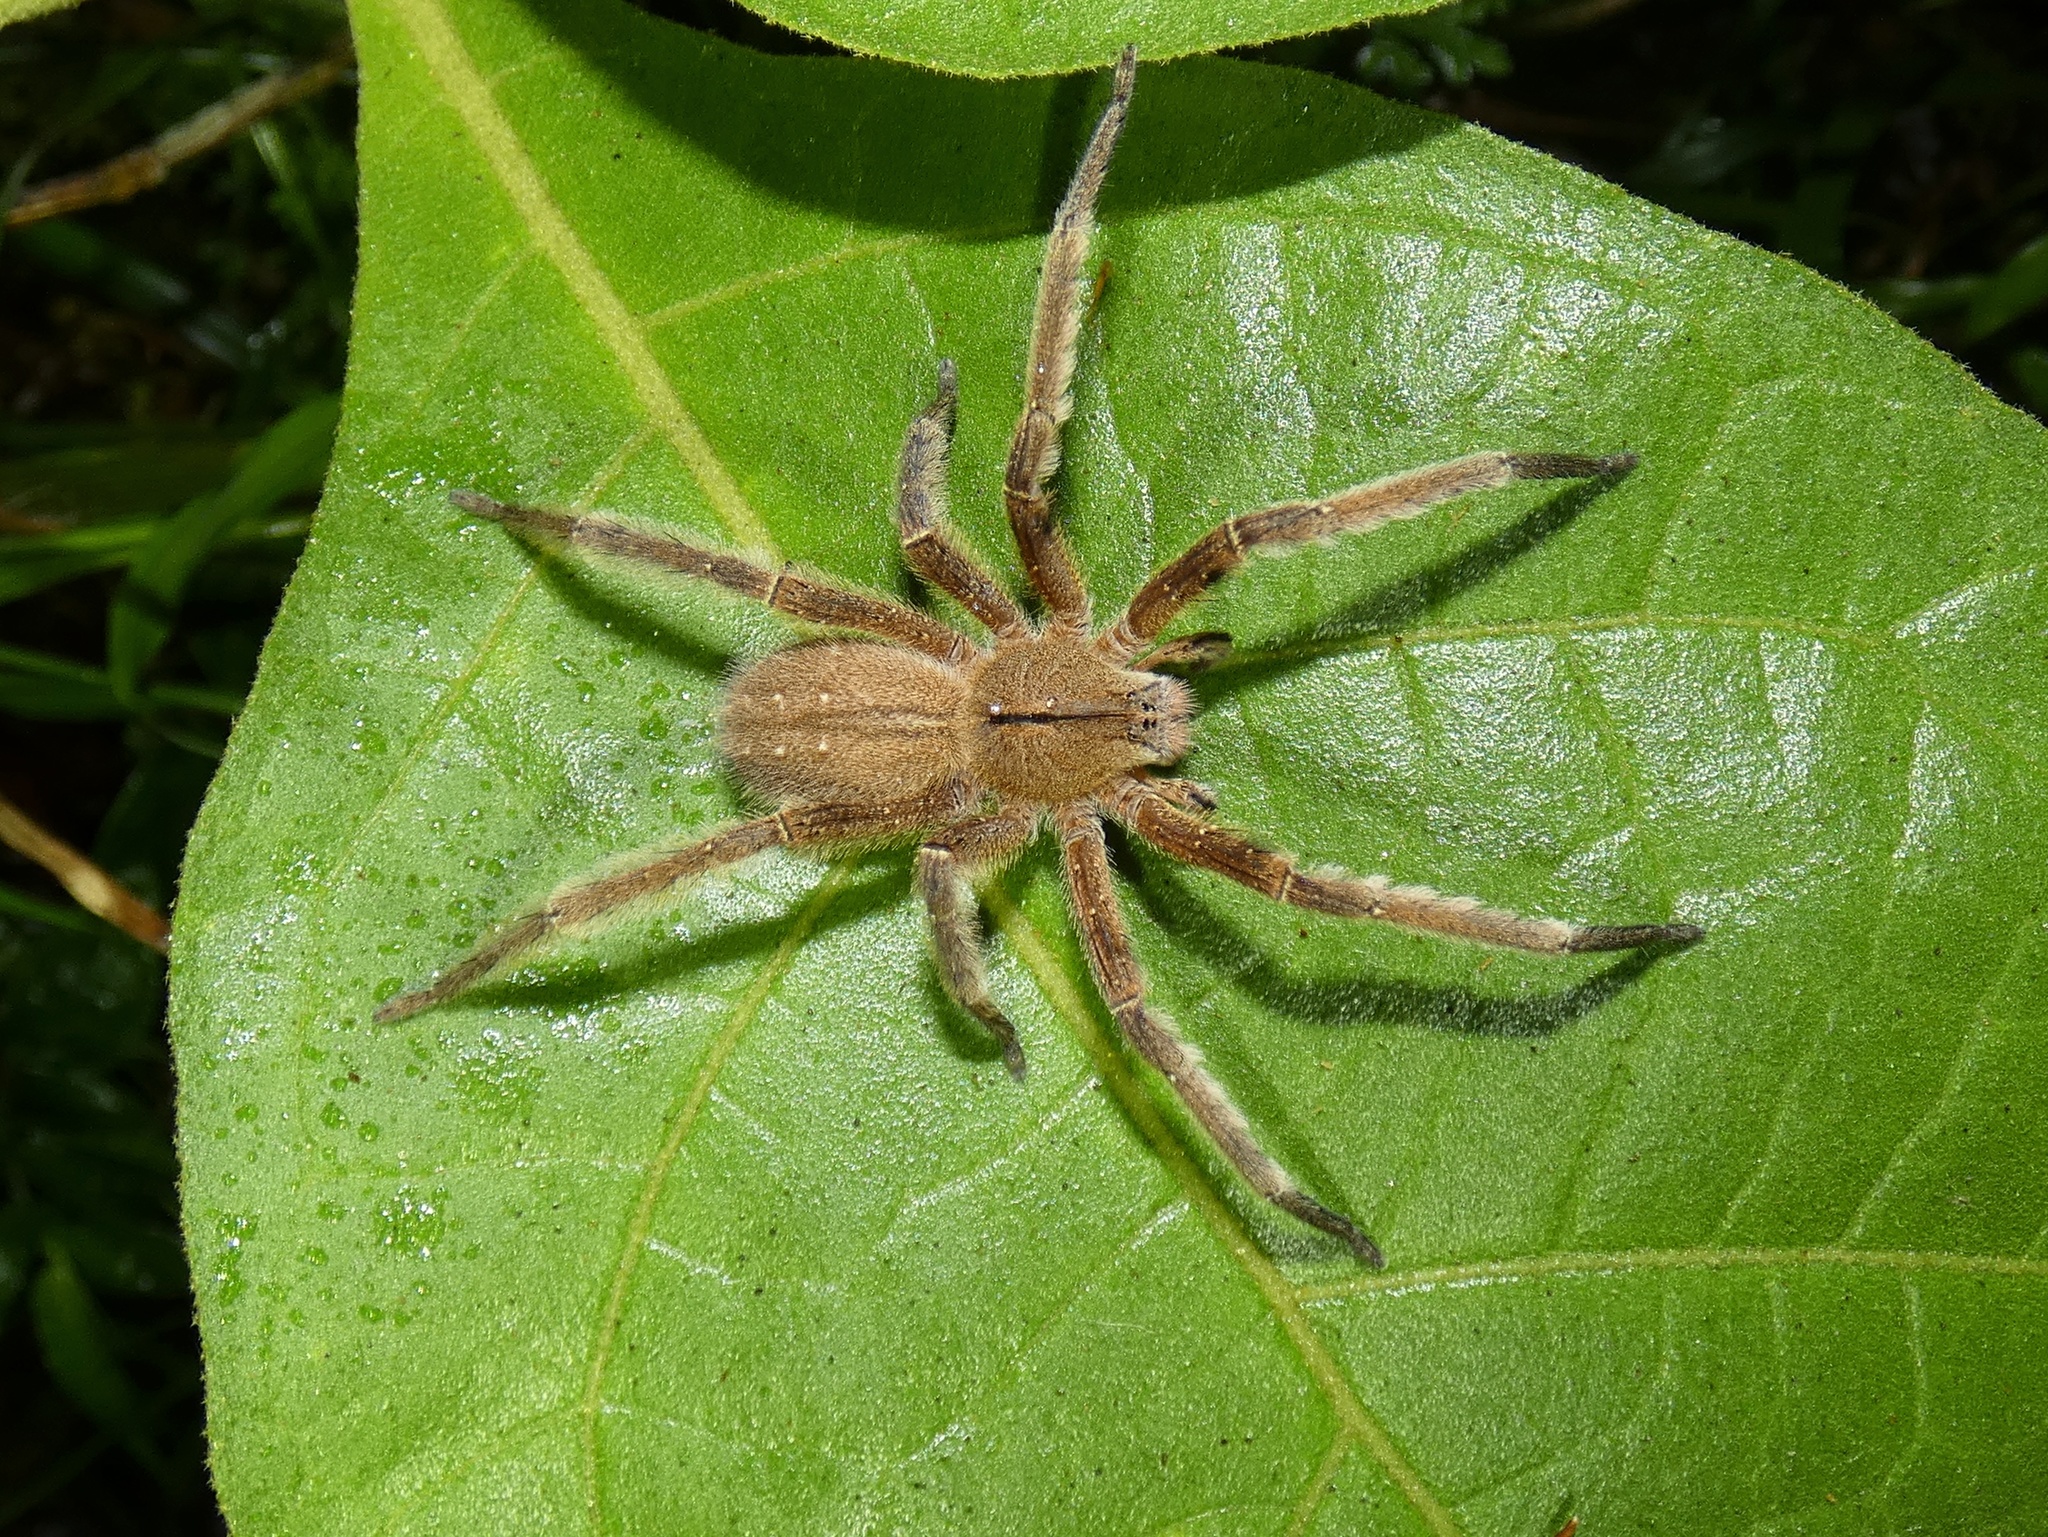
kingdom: Animalia
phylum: Arthropoda
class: Arachnida
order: Araneae
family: Ctenidae
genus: Phoneutria
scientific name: Phoneutria depilata
